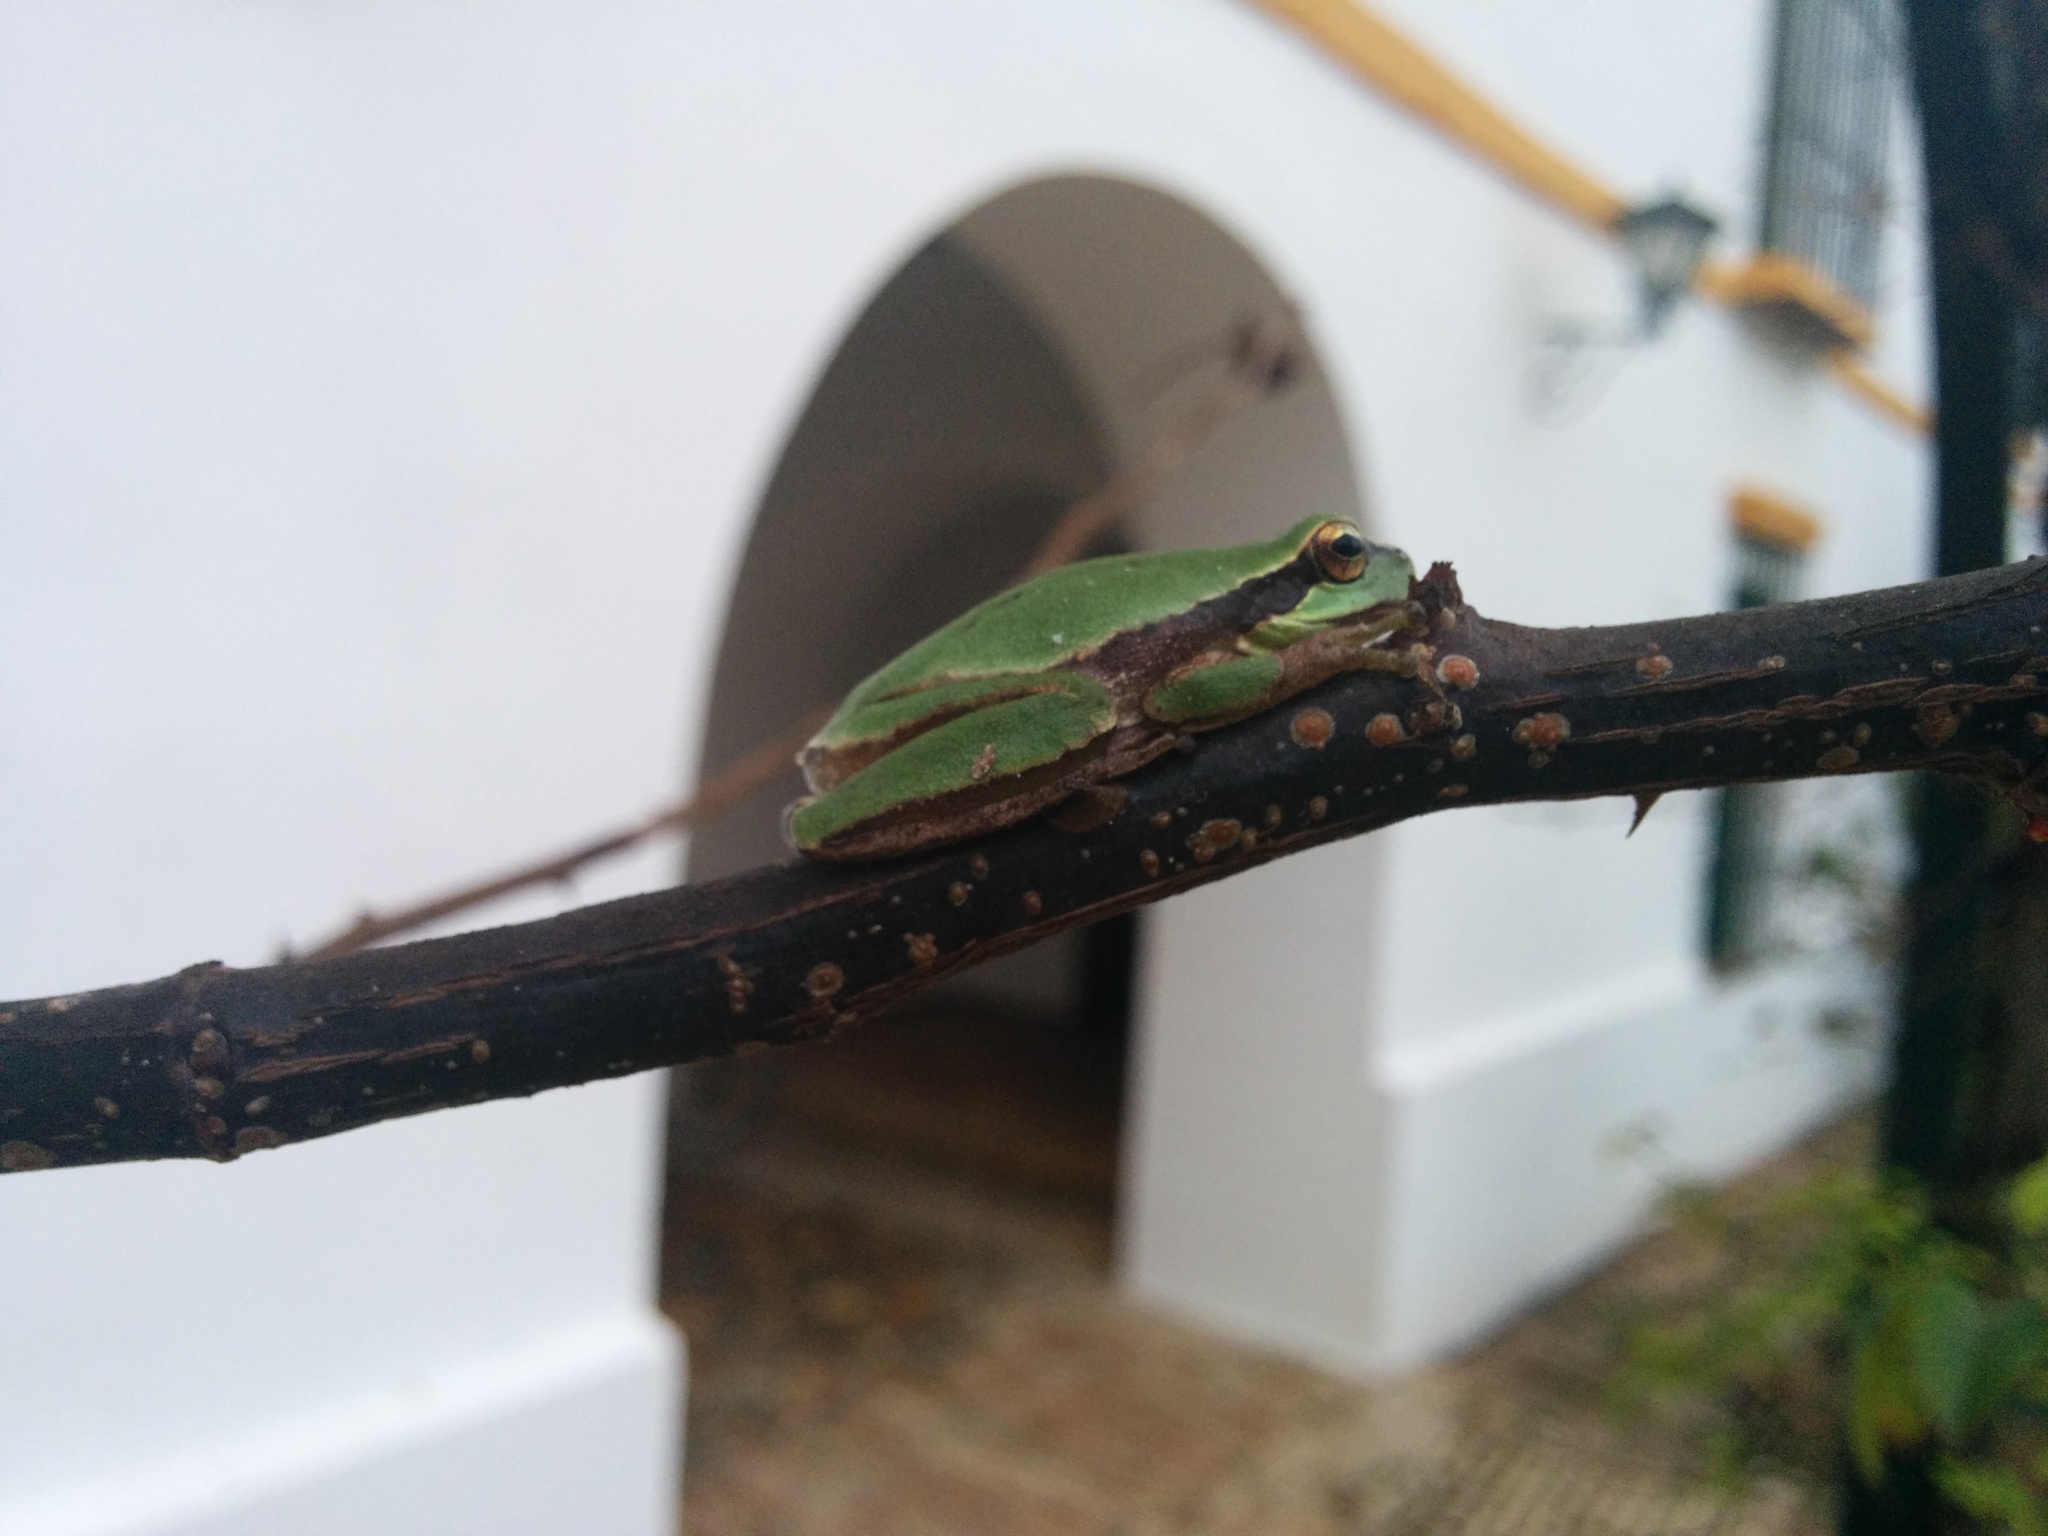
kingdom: Animalia
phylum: Chordata
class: Amphibia
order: Anura
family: Hylidae
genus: Hyla
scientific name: Hyla molleri
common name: Iberian tree frog
